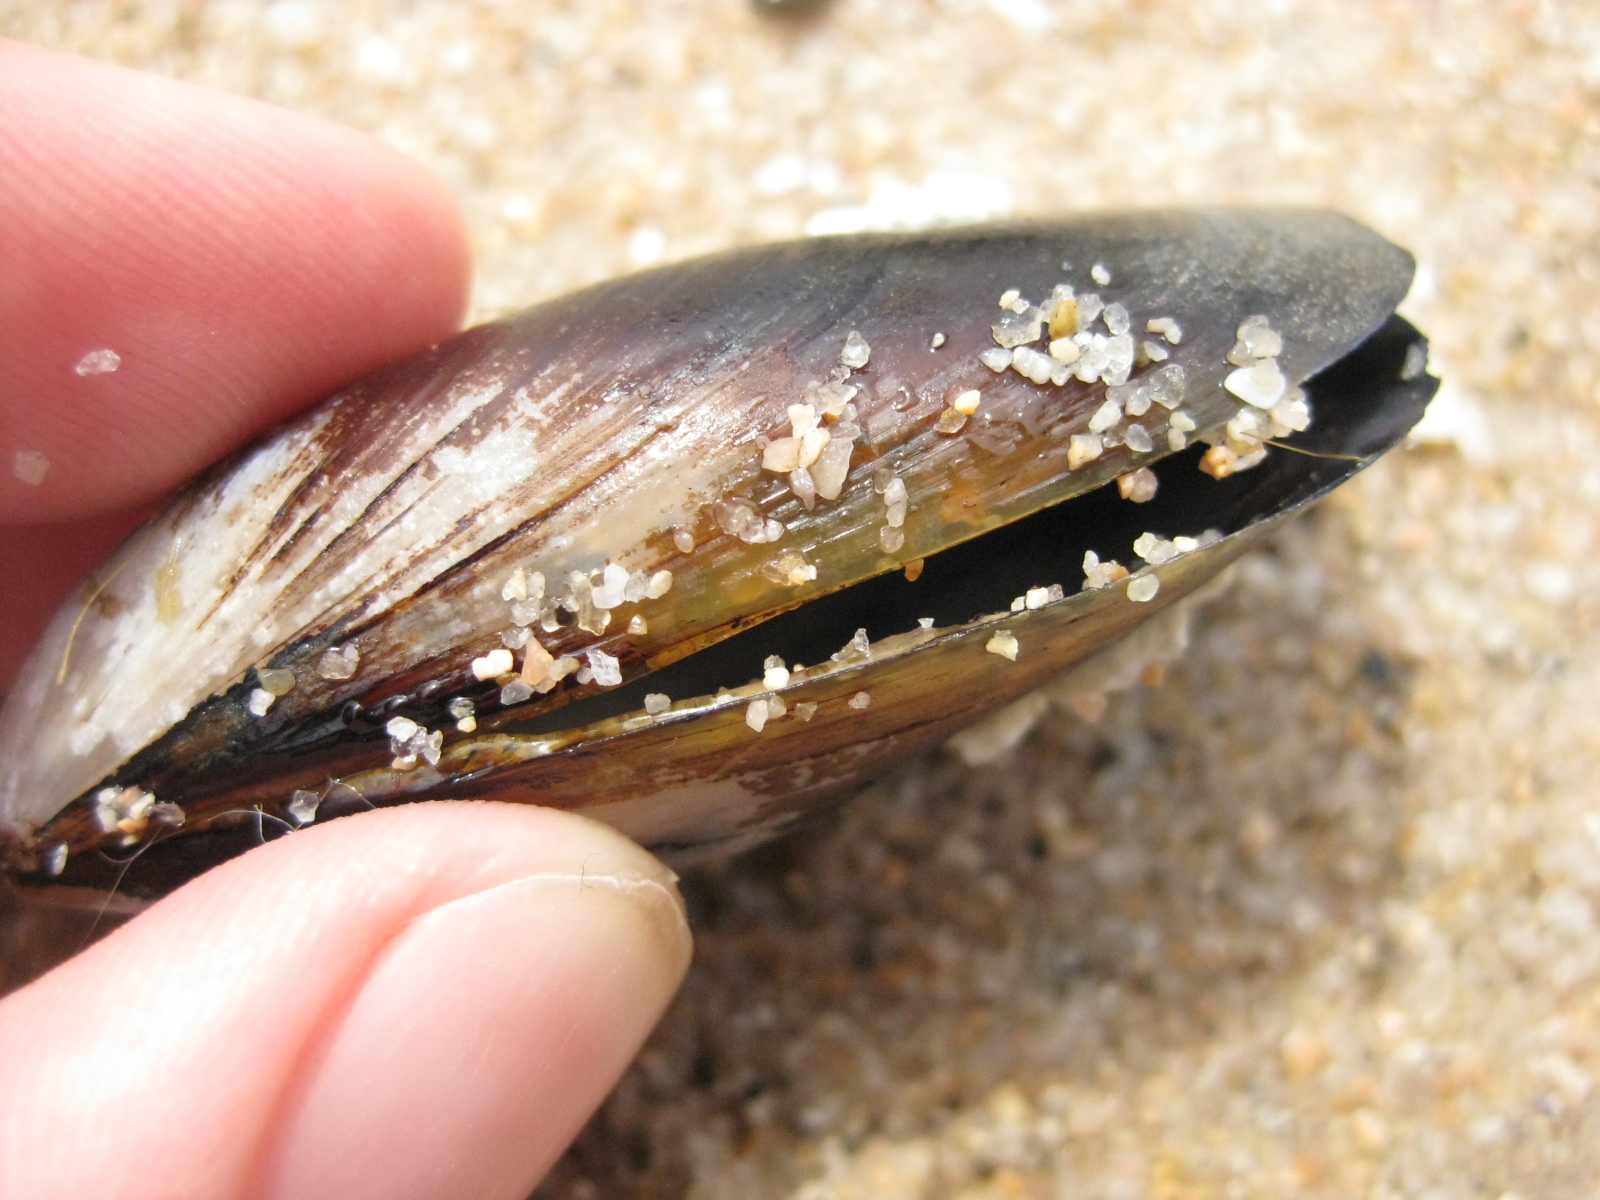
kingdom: Animalia
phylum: Mollusca
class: Bivalvia
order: Mytilida
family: Mytilidae
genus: Perna
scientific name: Perna canaliculus
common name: New zealand greenshelltm
